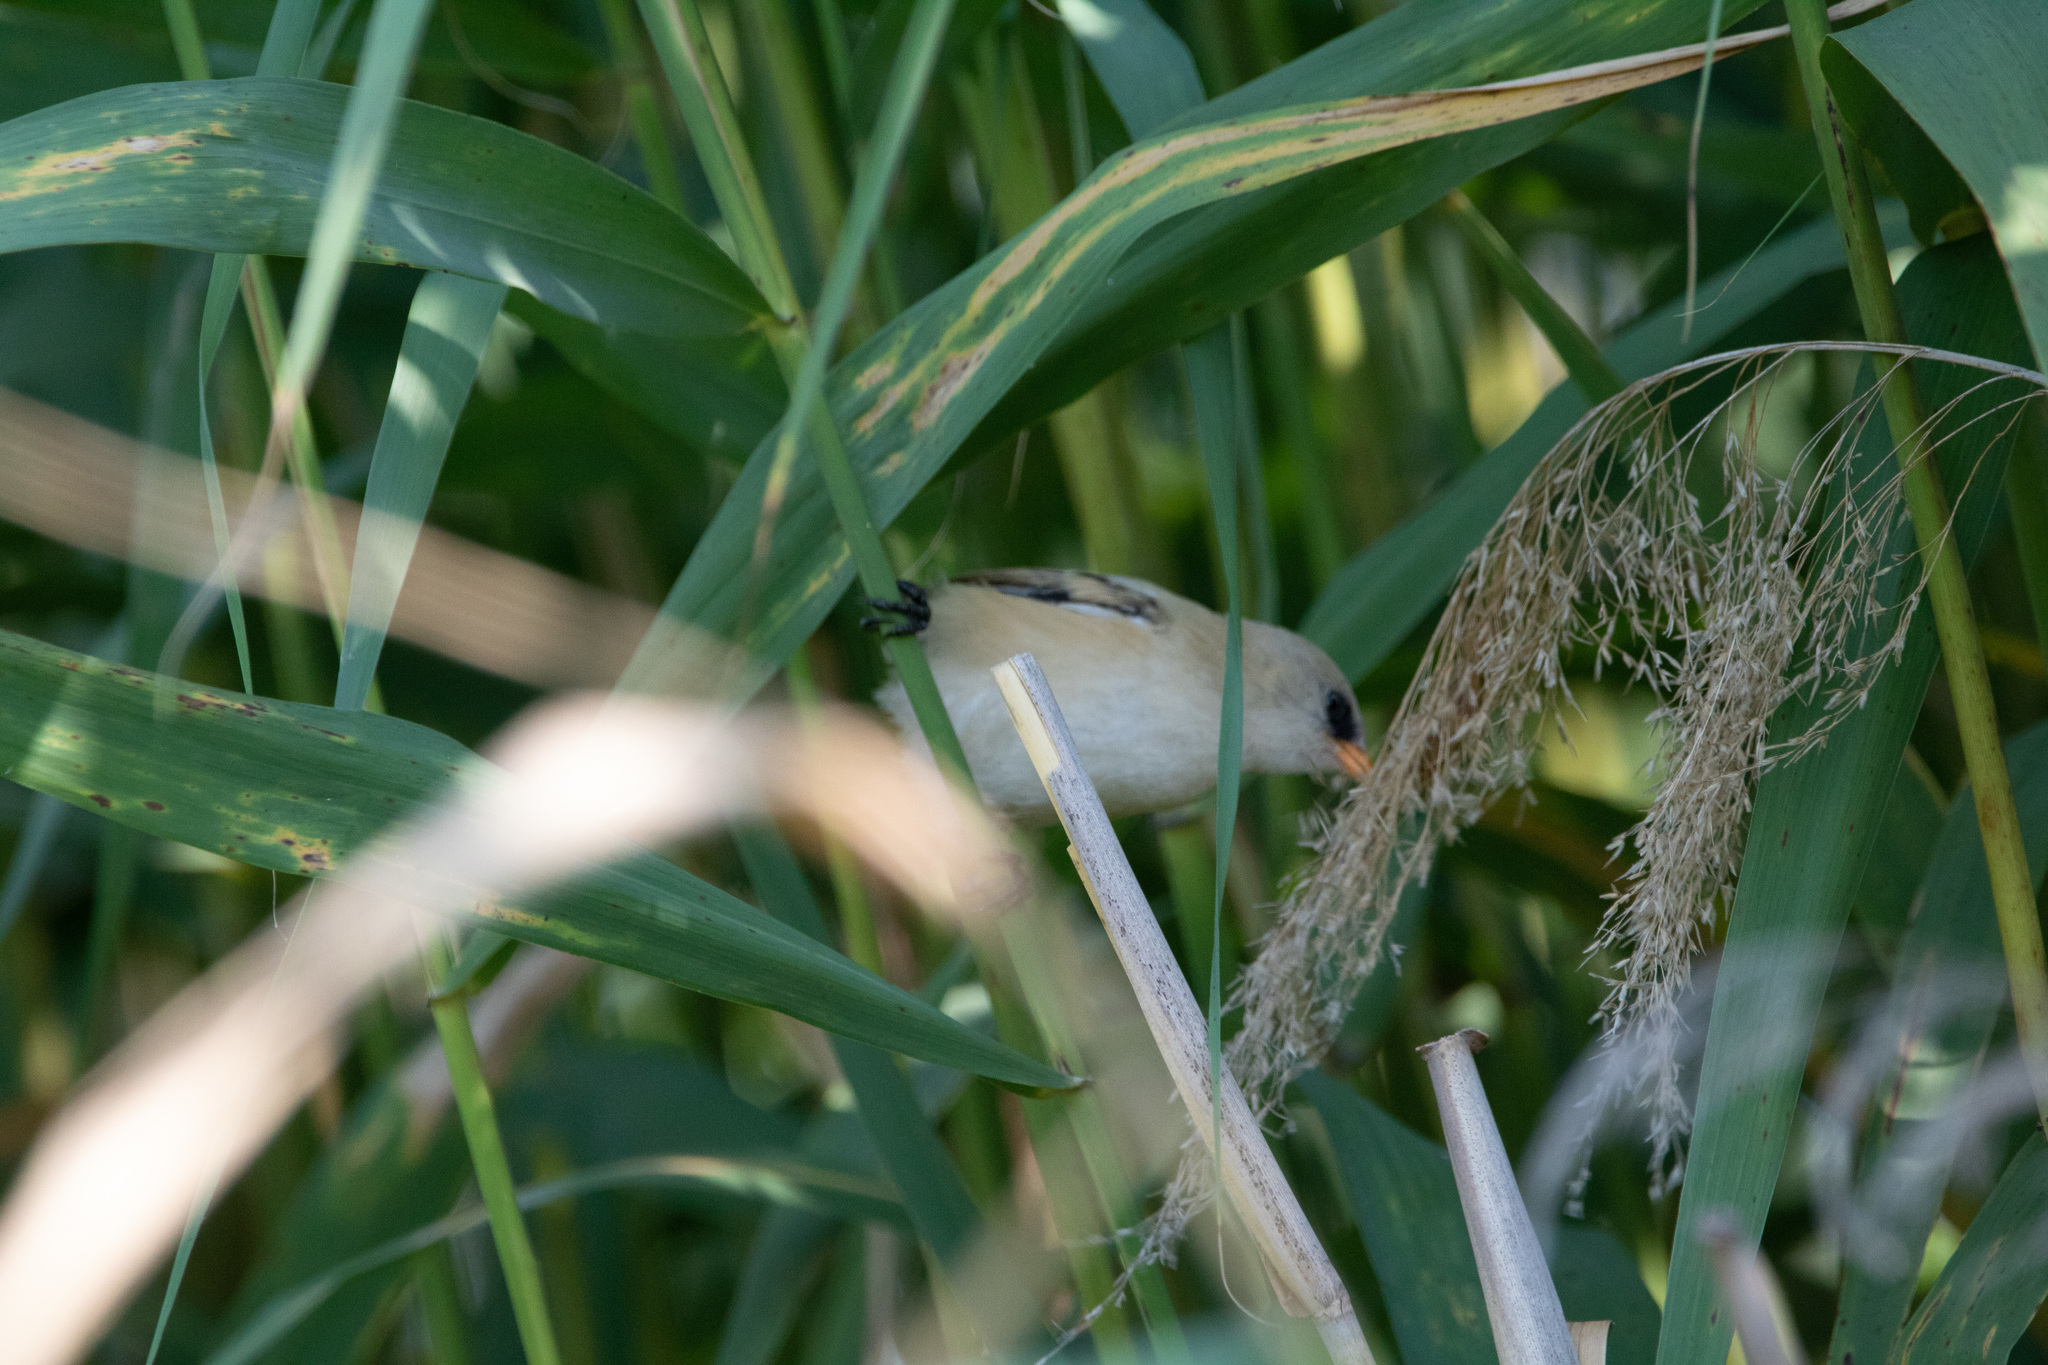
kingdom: Animalia
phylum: Chordata
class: Aves
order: Passeriformes
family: Panuridae
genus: Panurus
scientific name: Panurus biarmicus
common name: Bearded reedling
